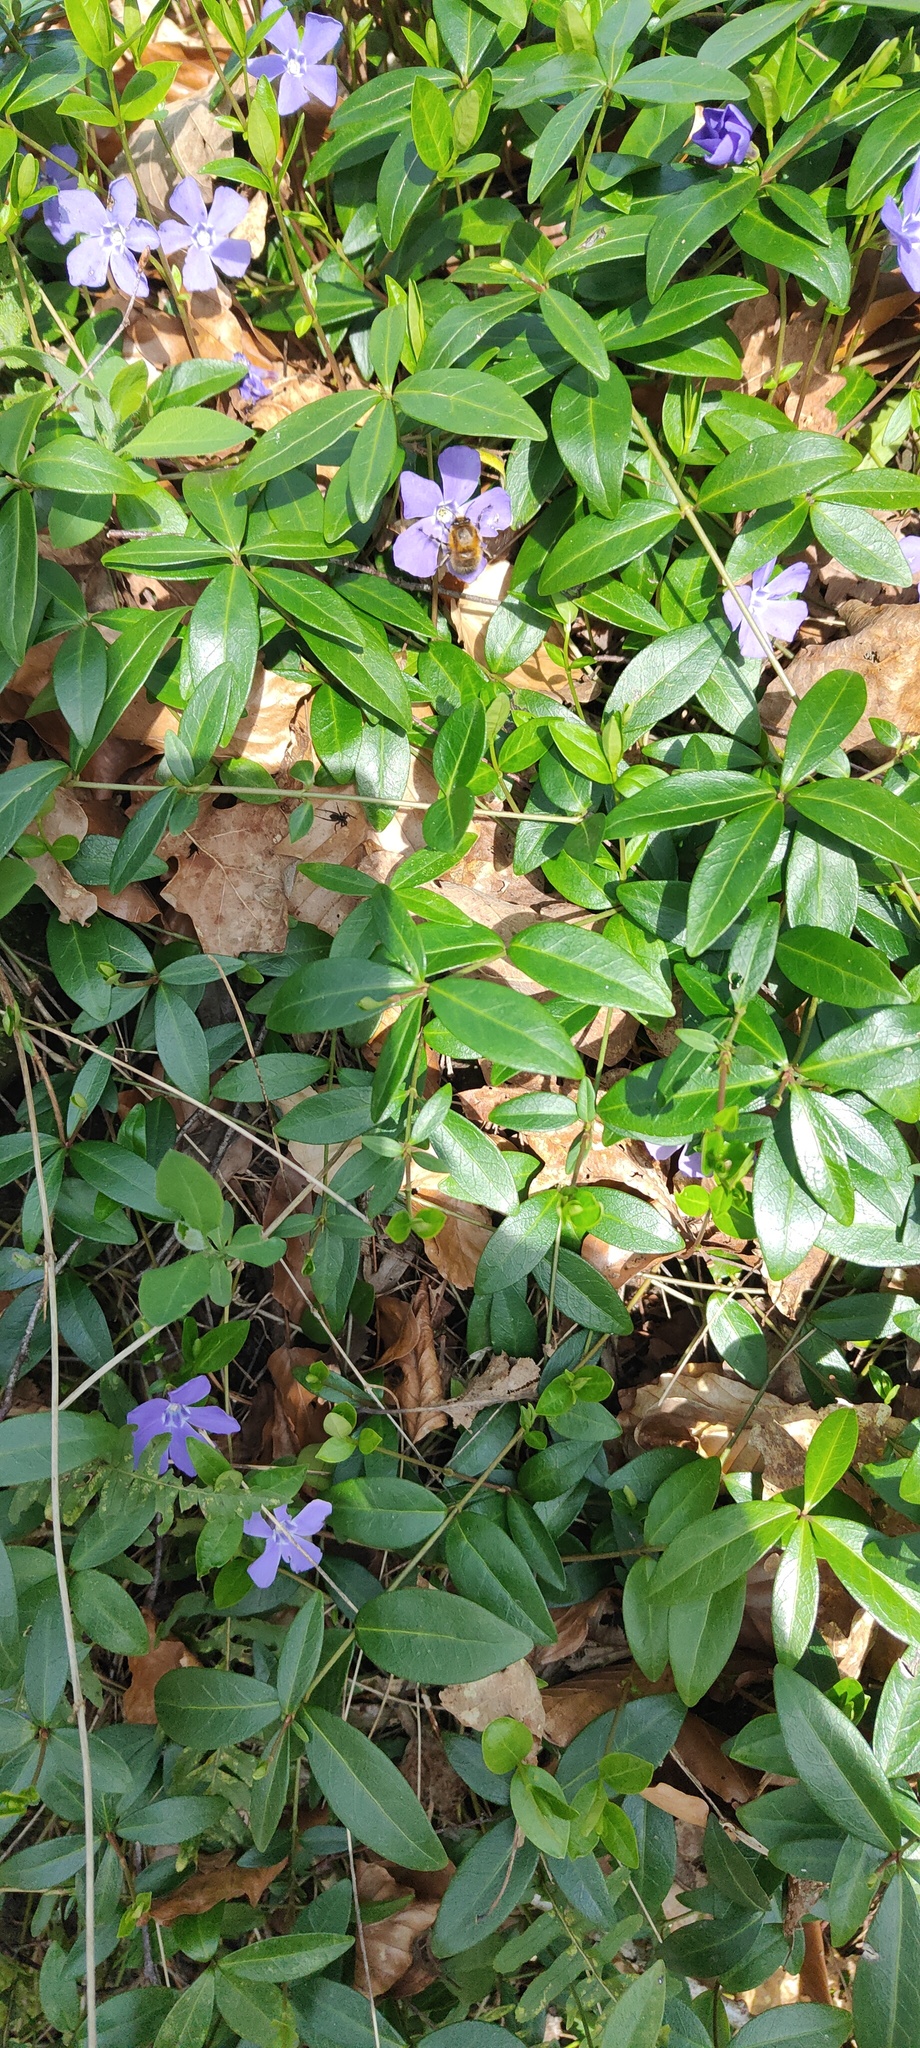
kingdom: Animalia
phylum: Arthropoda
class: Insecta
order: Hymenoptera
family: Apidae
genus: Anthophora
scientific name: Anthophora plumipes
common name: Hairy-footed flower bee
